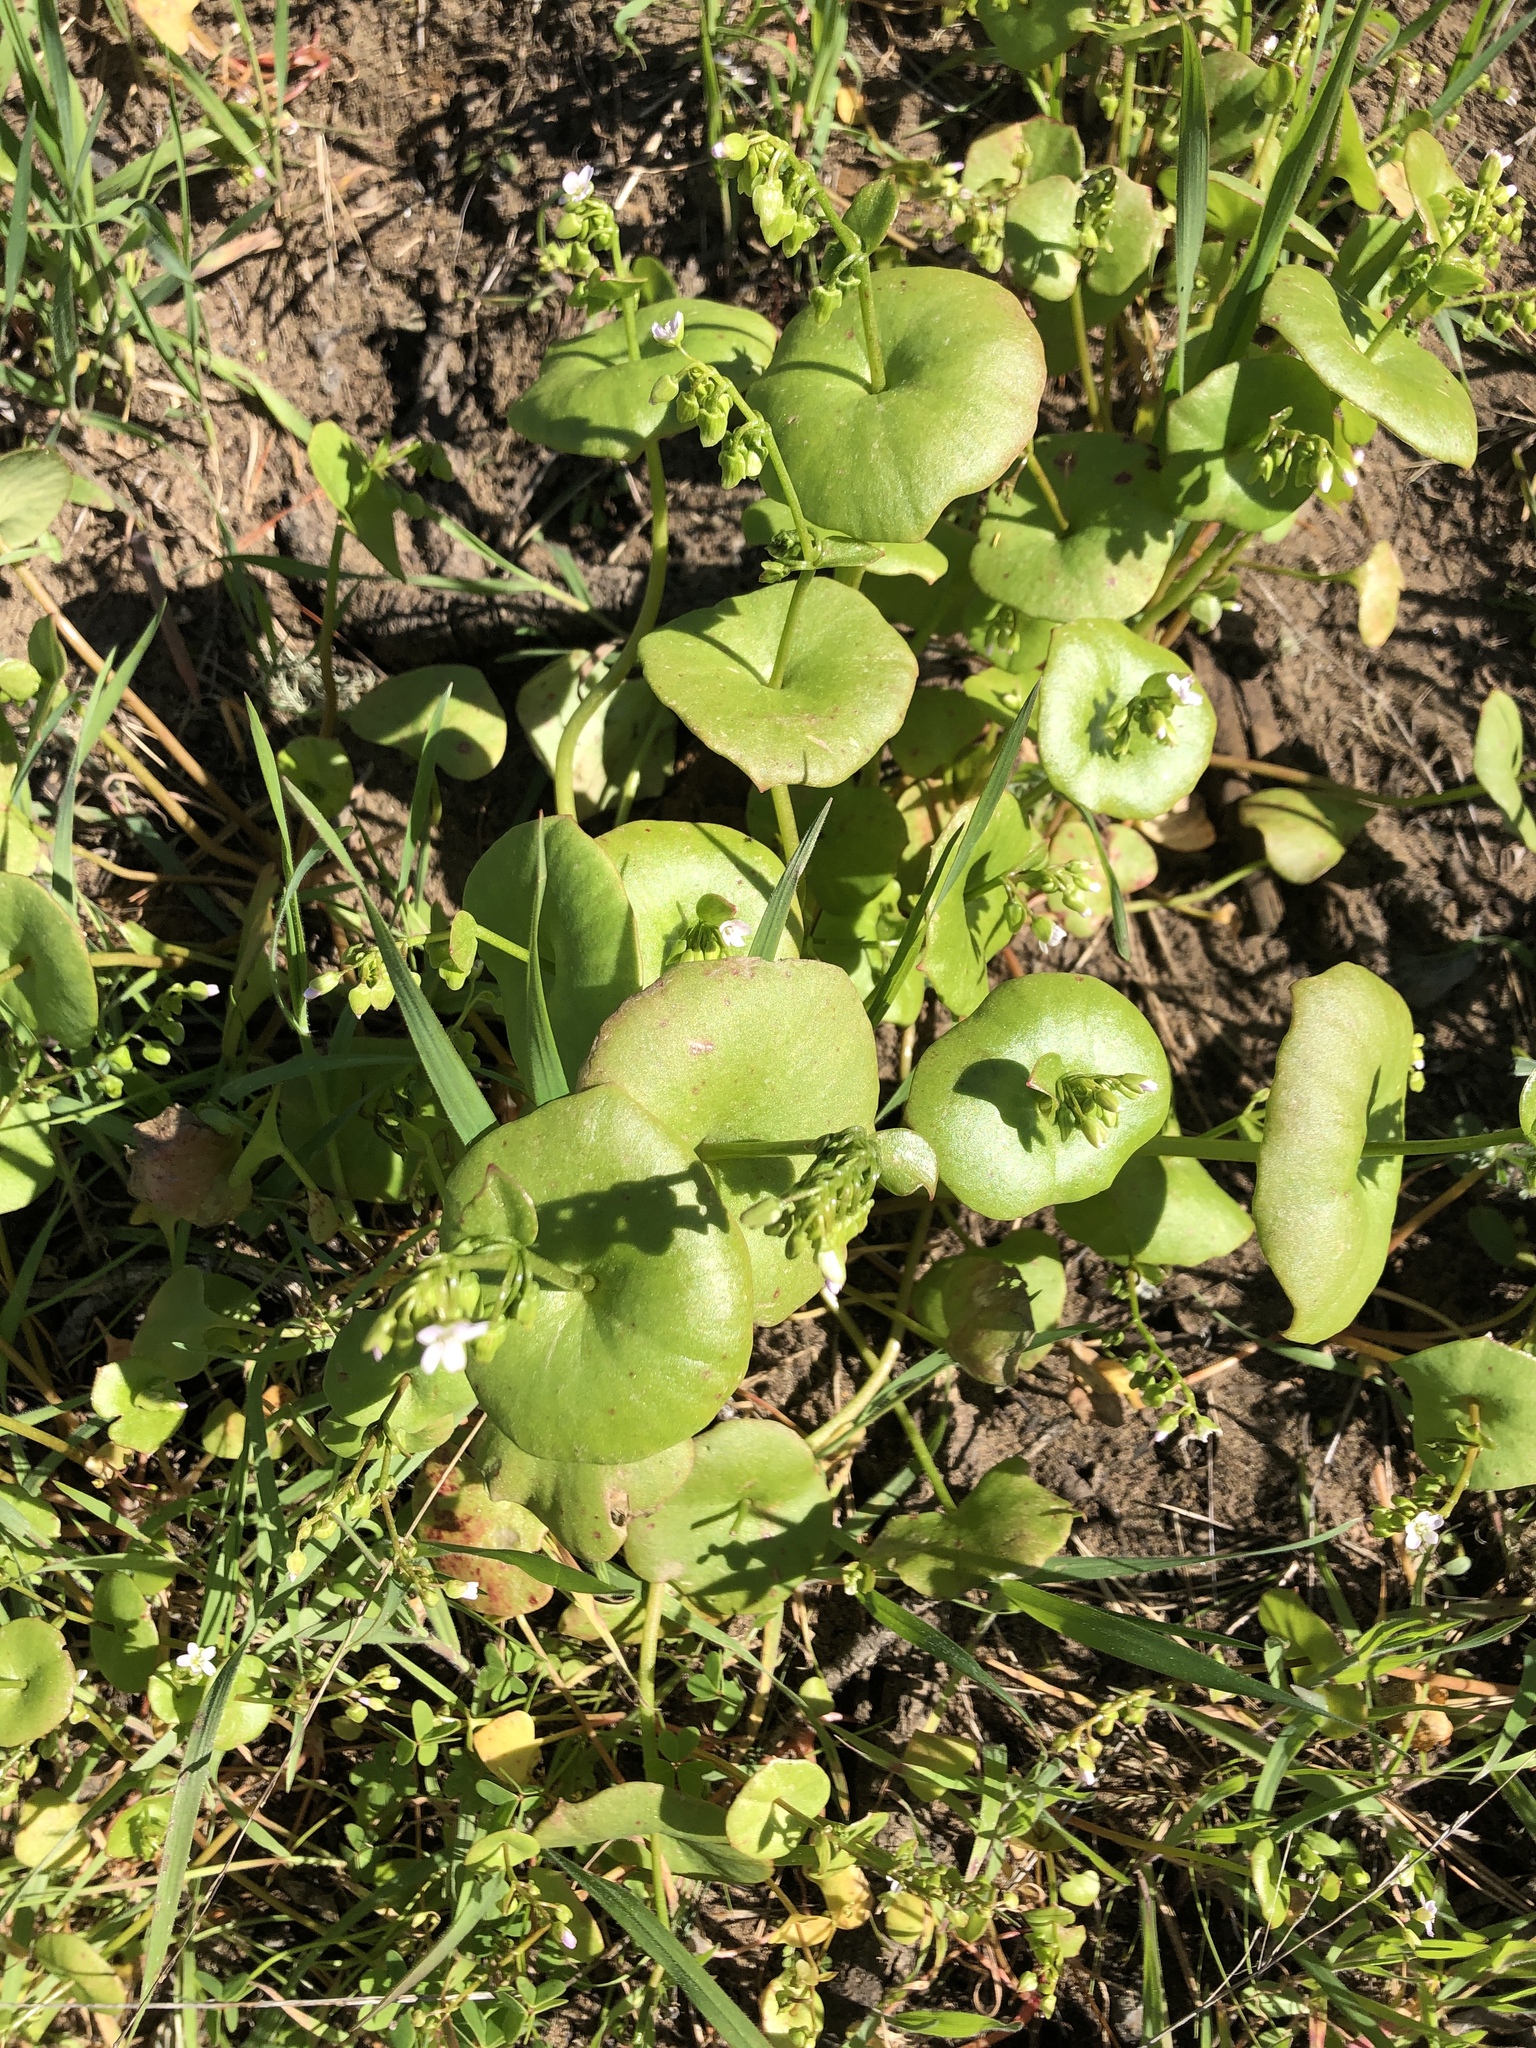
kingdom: Plantae
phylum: Tracheophyta
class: Magnoliopsida
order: Caryophyllales
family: Montiaceae
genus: Claytonia
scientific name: Claytonia perfoliata
